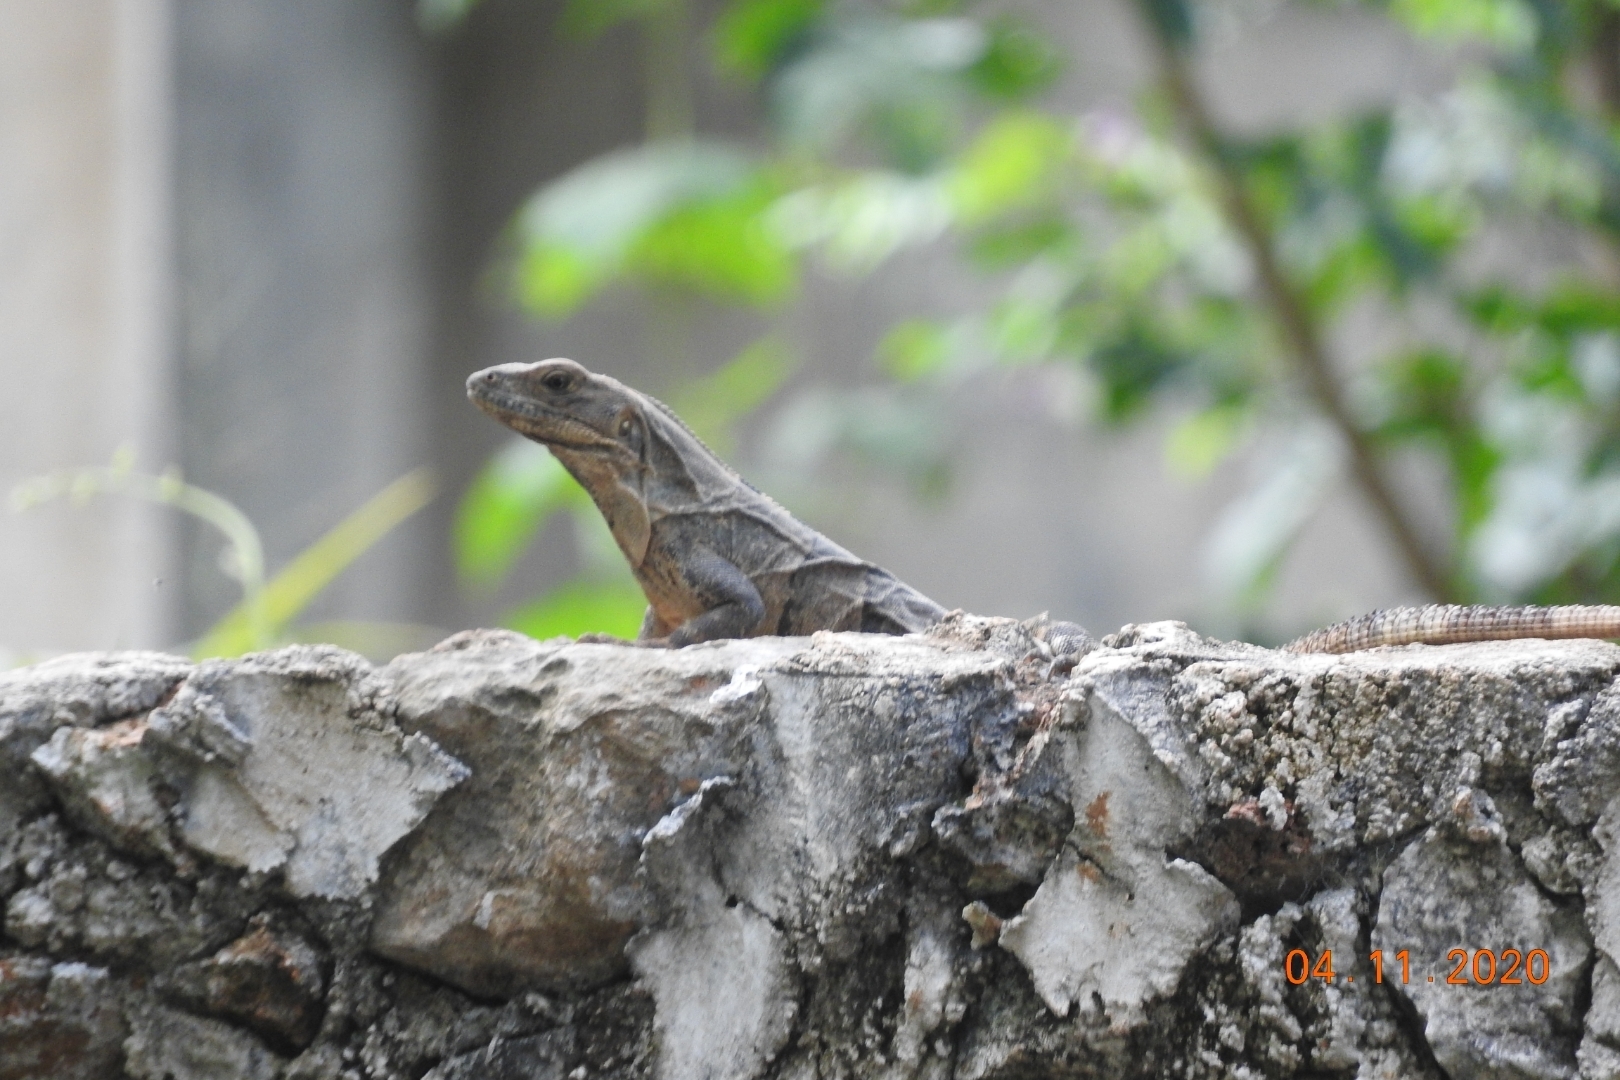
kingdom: Animalia
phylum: Chordata
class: Squamata
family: Iguanidae
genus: Ctenosaura
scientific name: Ctenosaura similis
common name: Black spiny-tailed iguana
